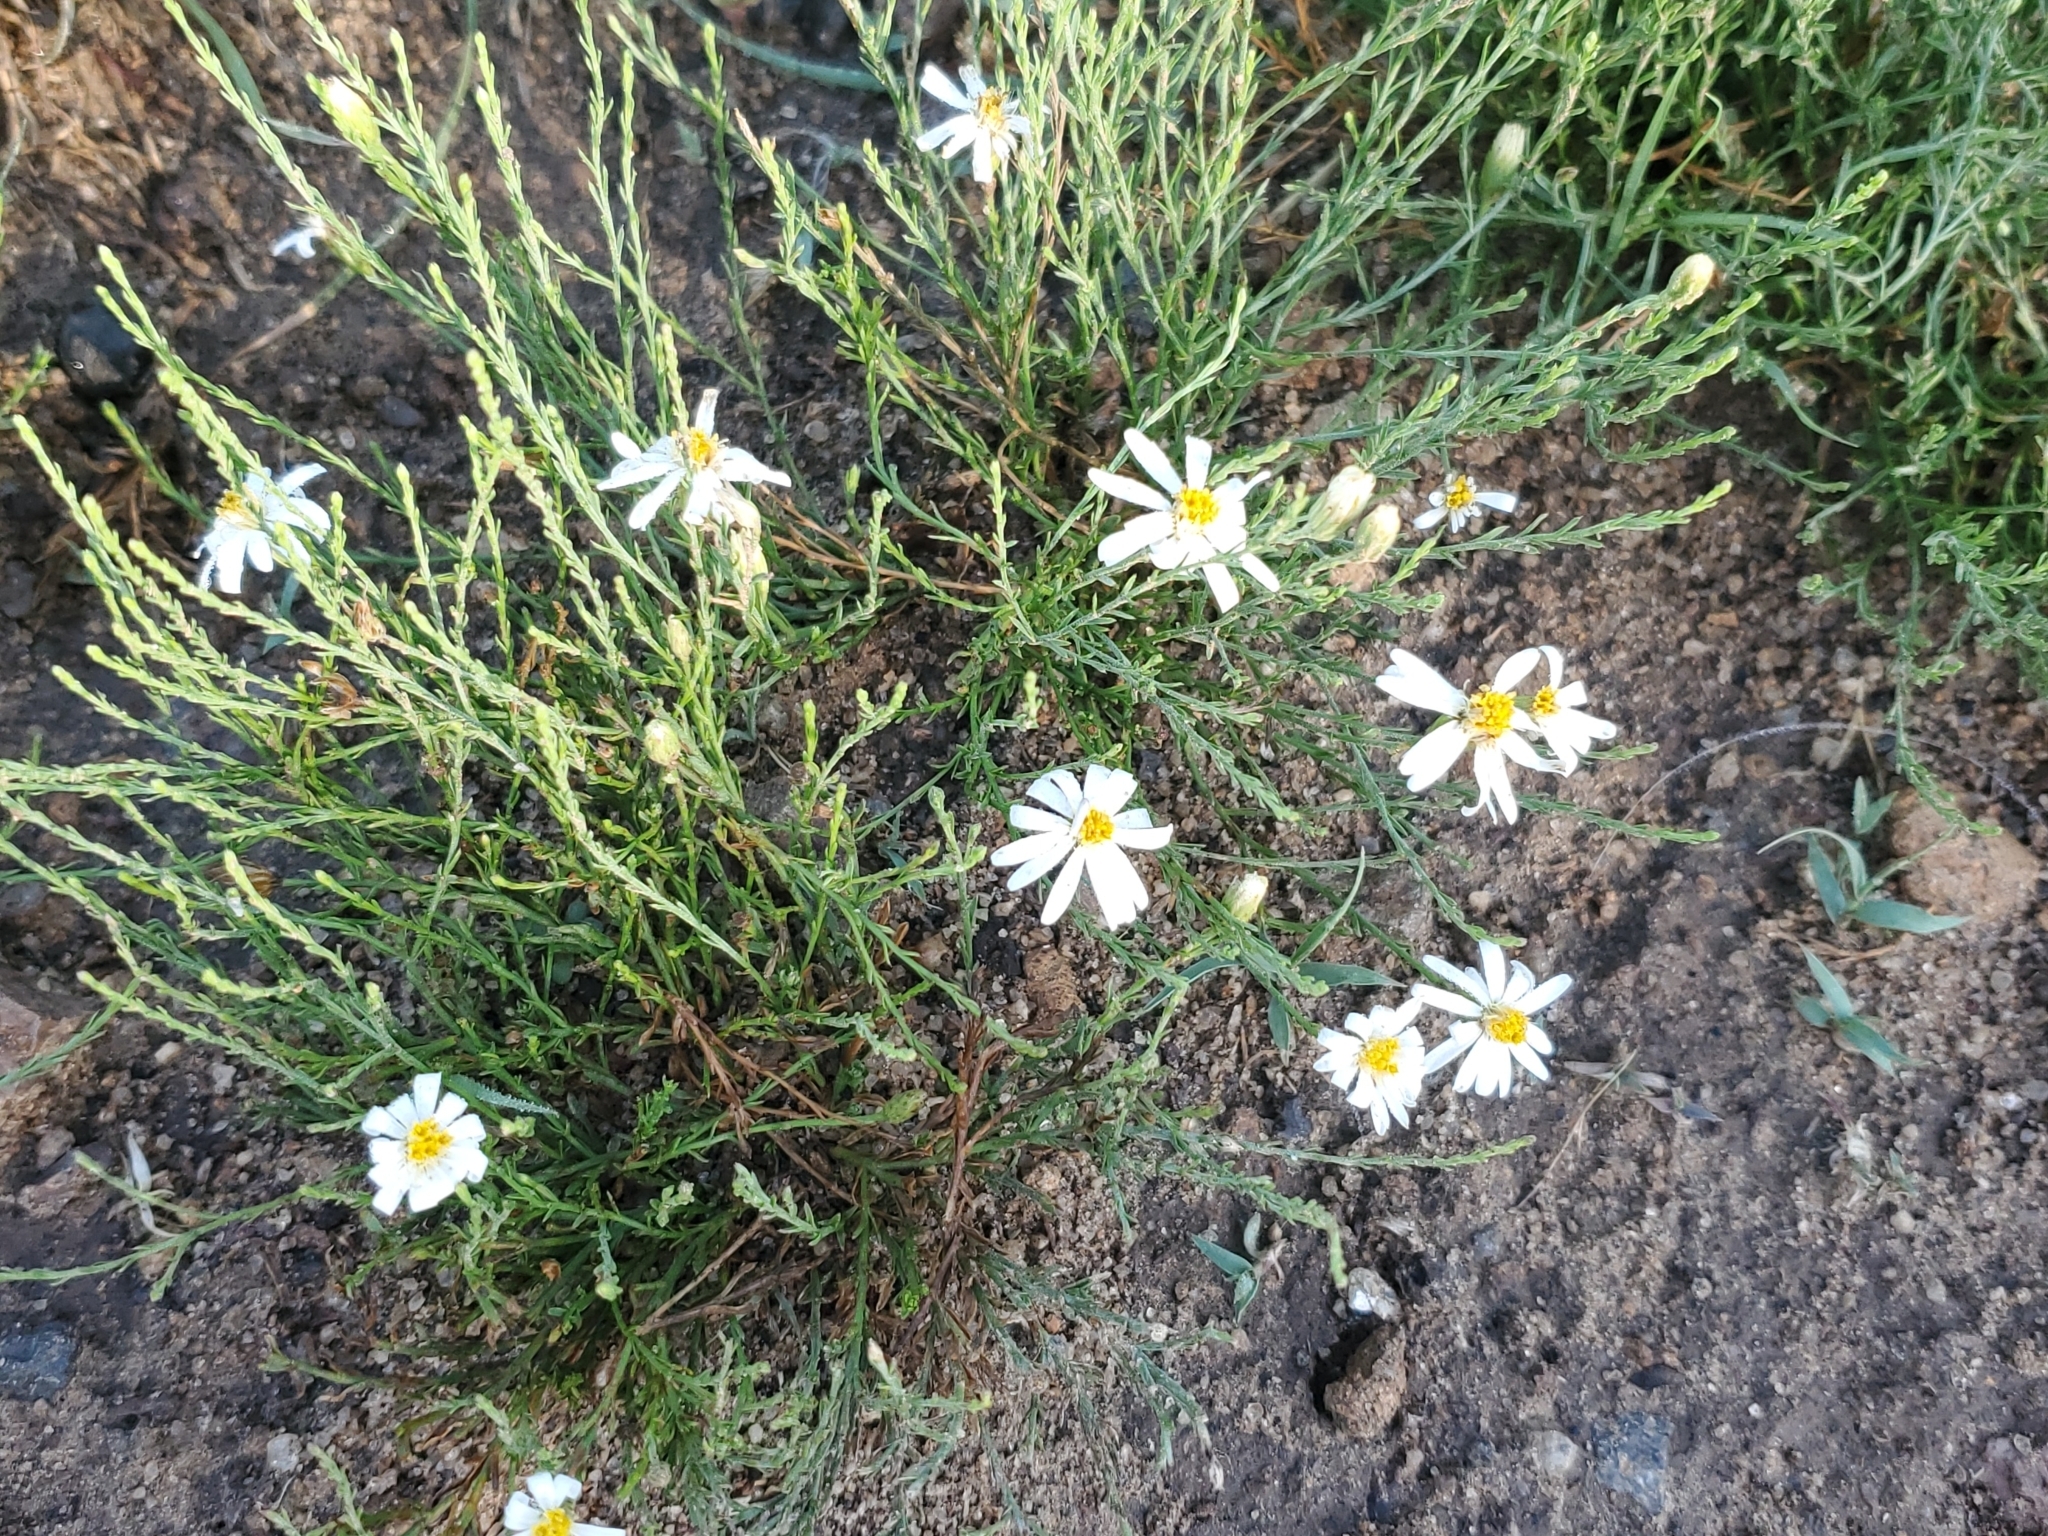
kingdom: Plantae
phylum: Tracheophyta
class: Magnoliopsida
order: Asterales
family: Asteraceae
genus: Chaetopappa
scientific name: Chaetopappa ericoides
